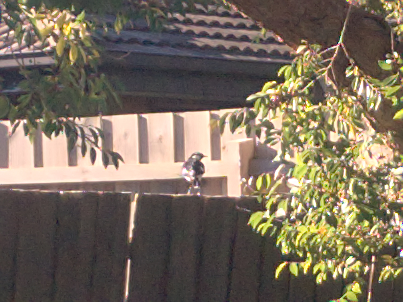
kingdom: Animalia
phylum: Chordata
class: Aves
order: Passeriformes
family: Monarchidae
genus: Grallina
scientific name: Grallina cyanoleuca
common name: Magpie-lark
